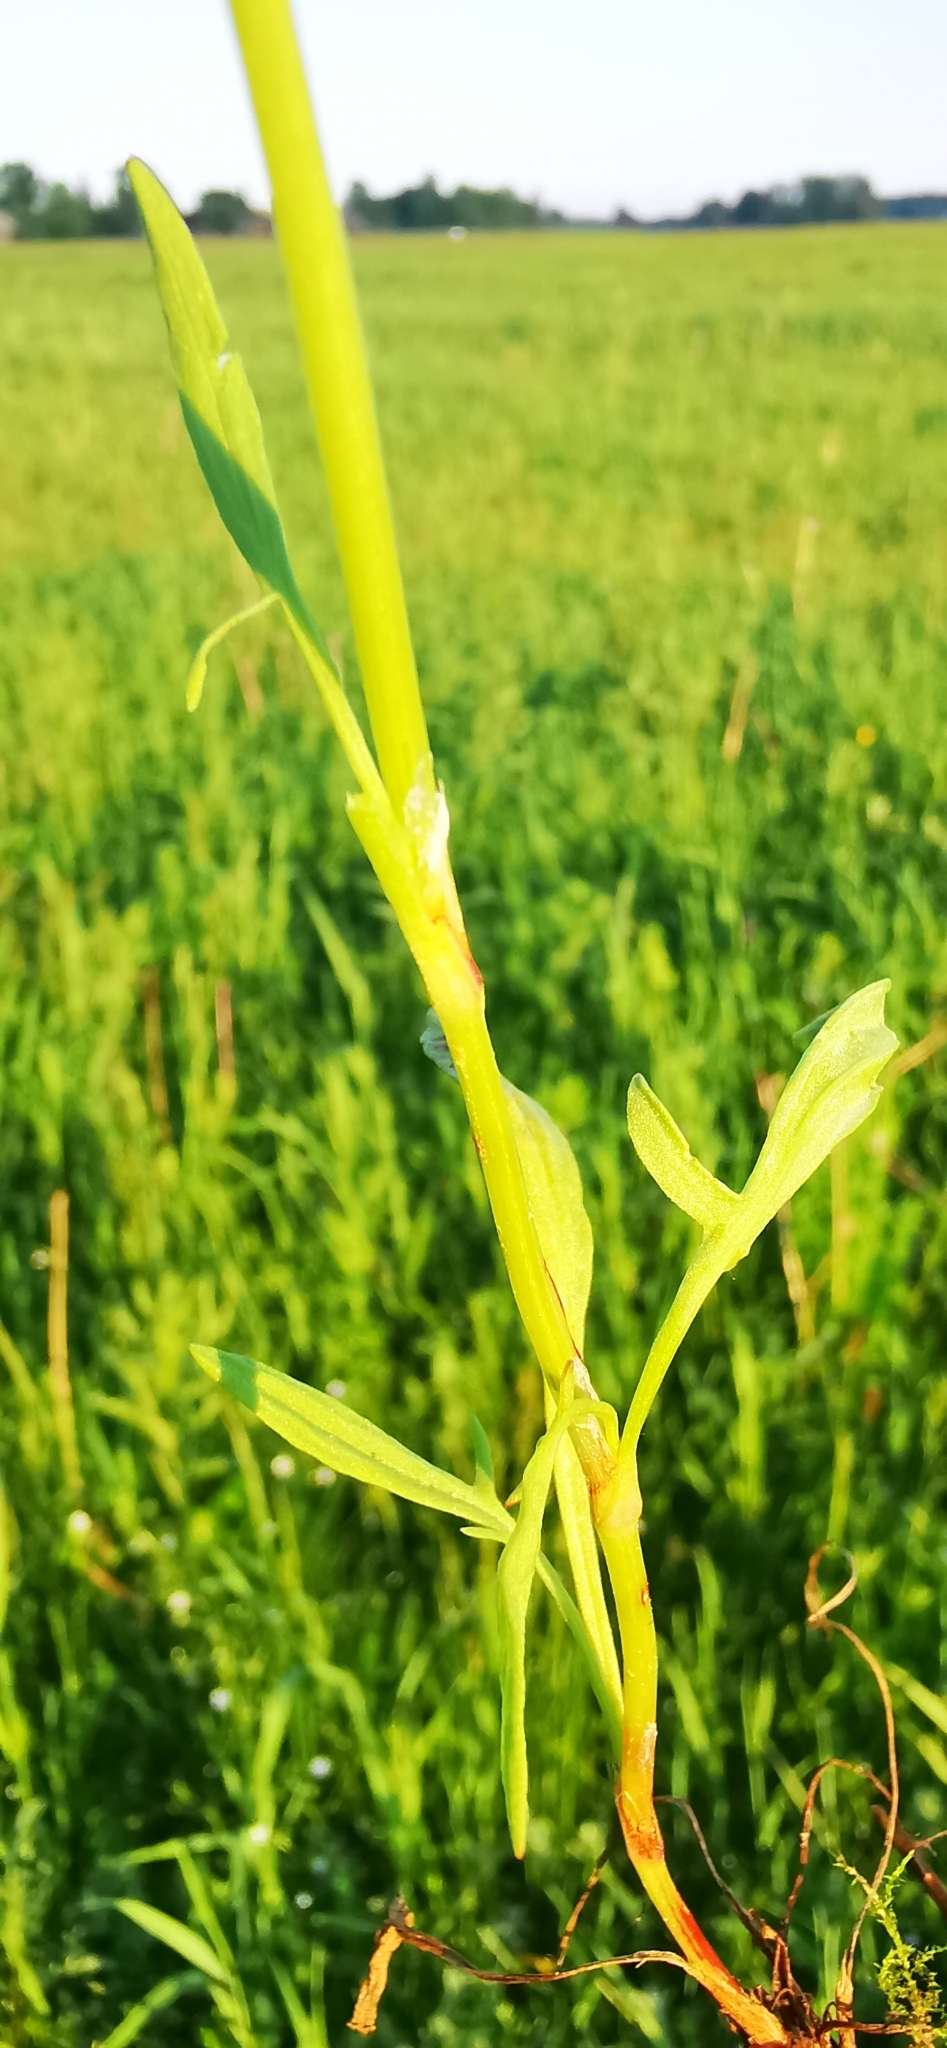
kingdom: Plantae
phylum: Tracheophyta
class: Magnoliopsida
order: Caryophyllales
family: Polygonaceae
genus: Rumex
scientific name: Rumex acetosella
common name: Common sheep sorrel
